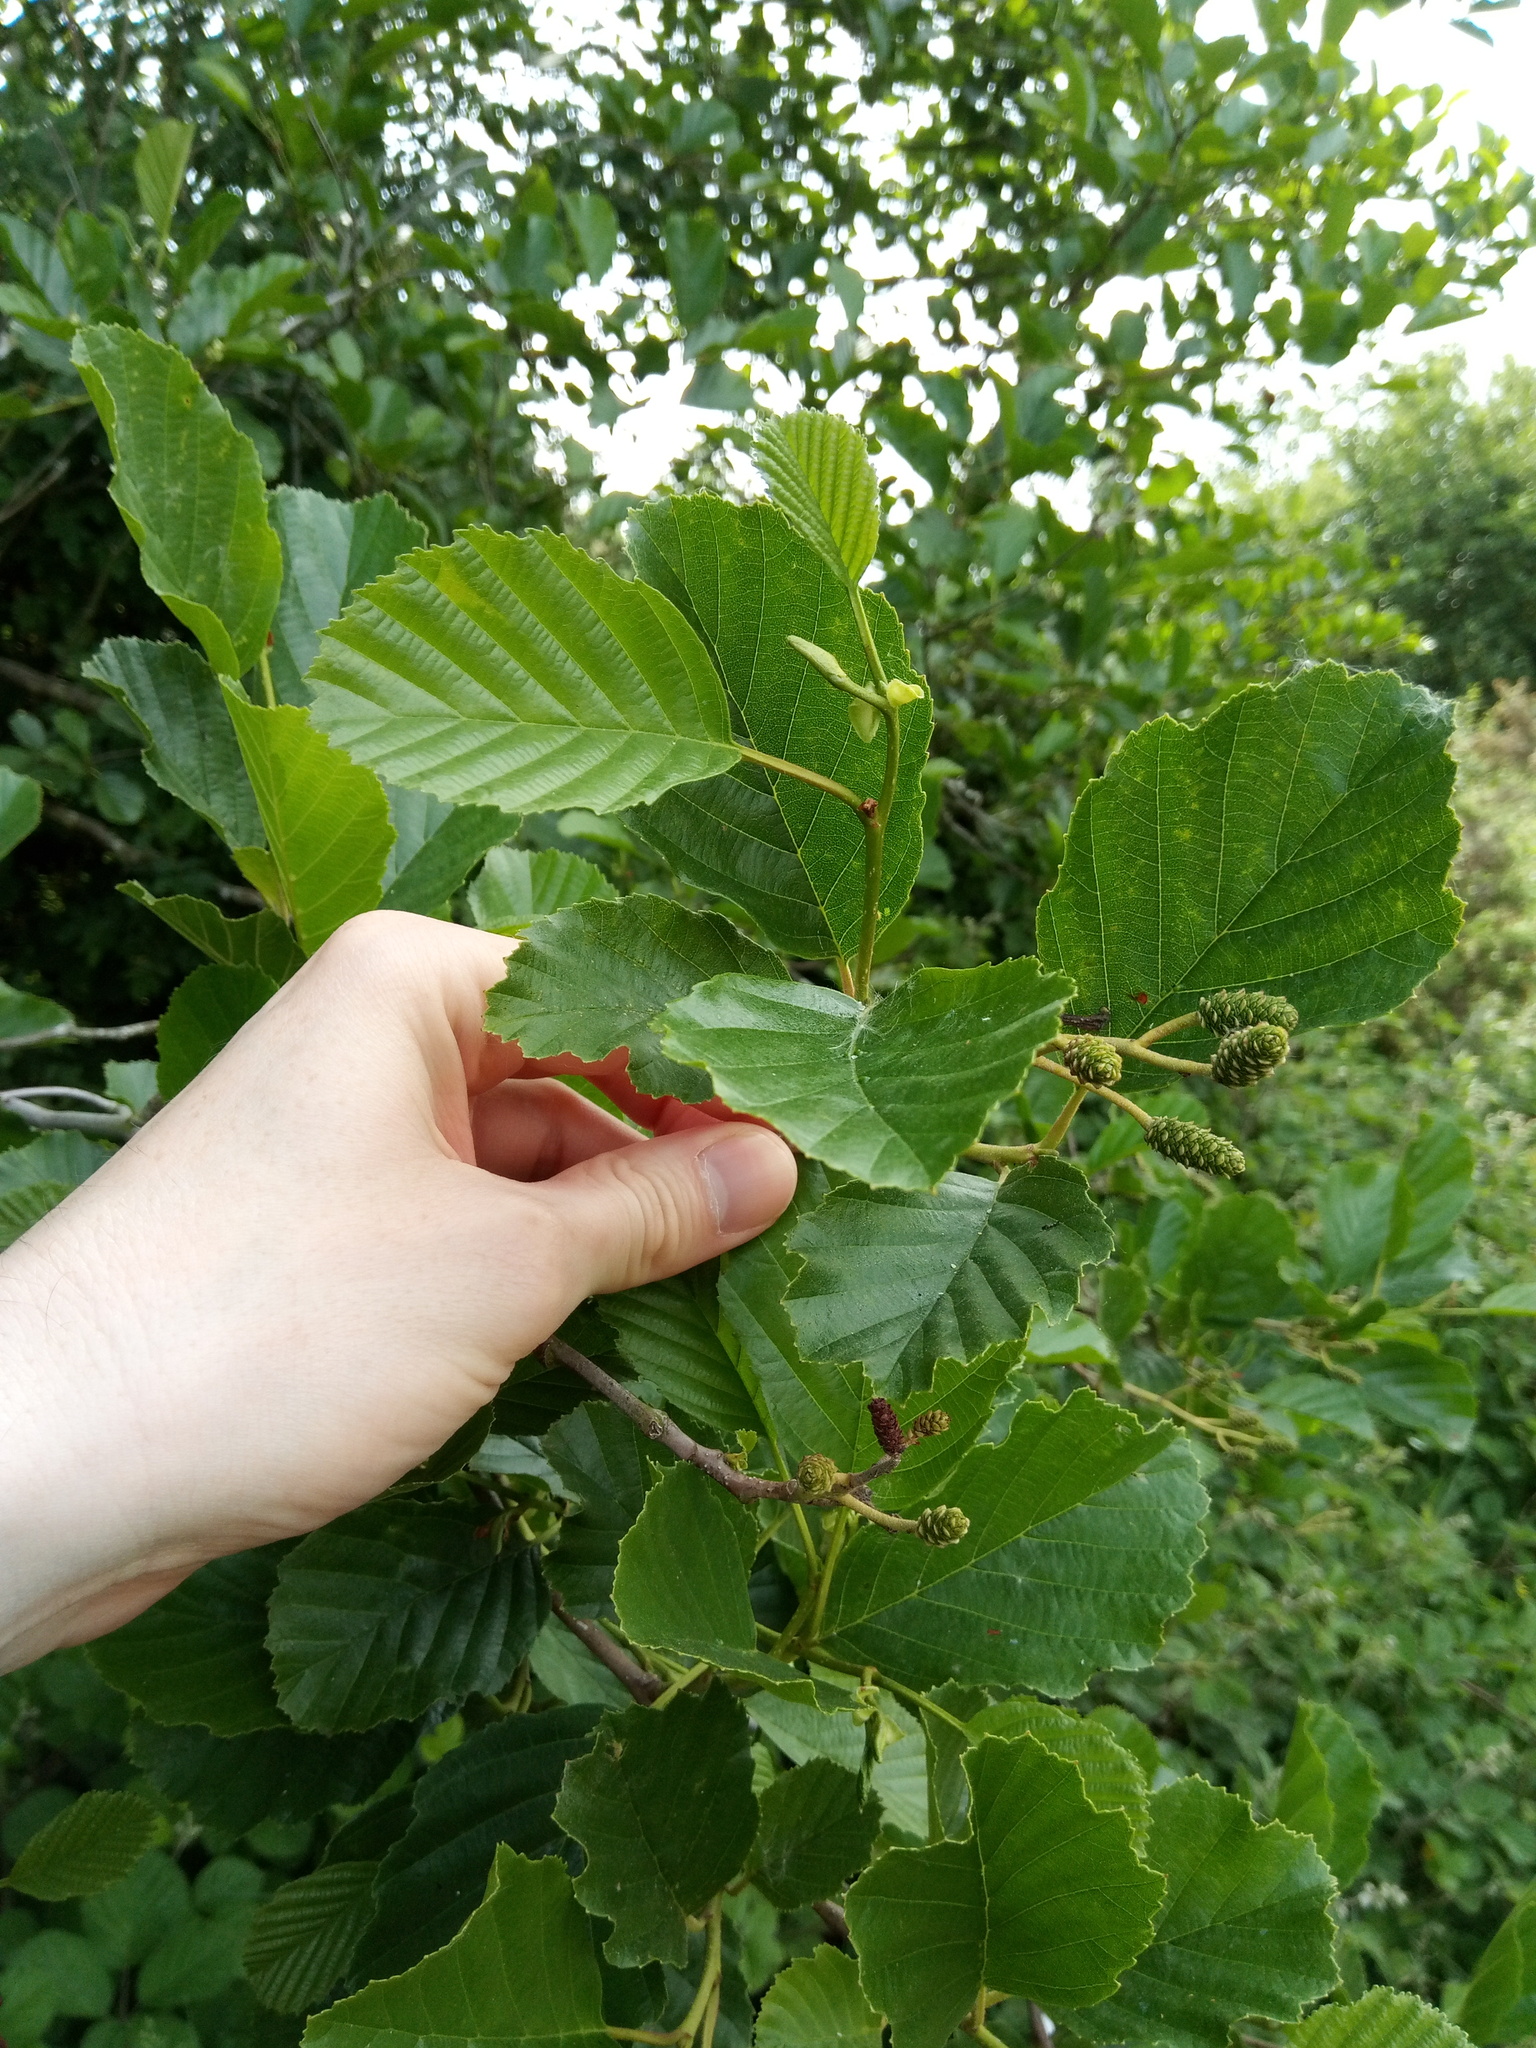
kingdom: Plantae
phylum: Tracheophyta
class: Magnoliopsida
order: Fagales
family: Betulaceae
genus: Alnus
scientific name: Alnus glutinosa
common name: Black alder
